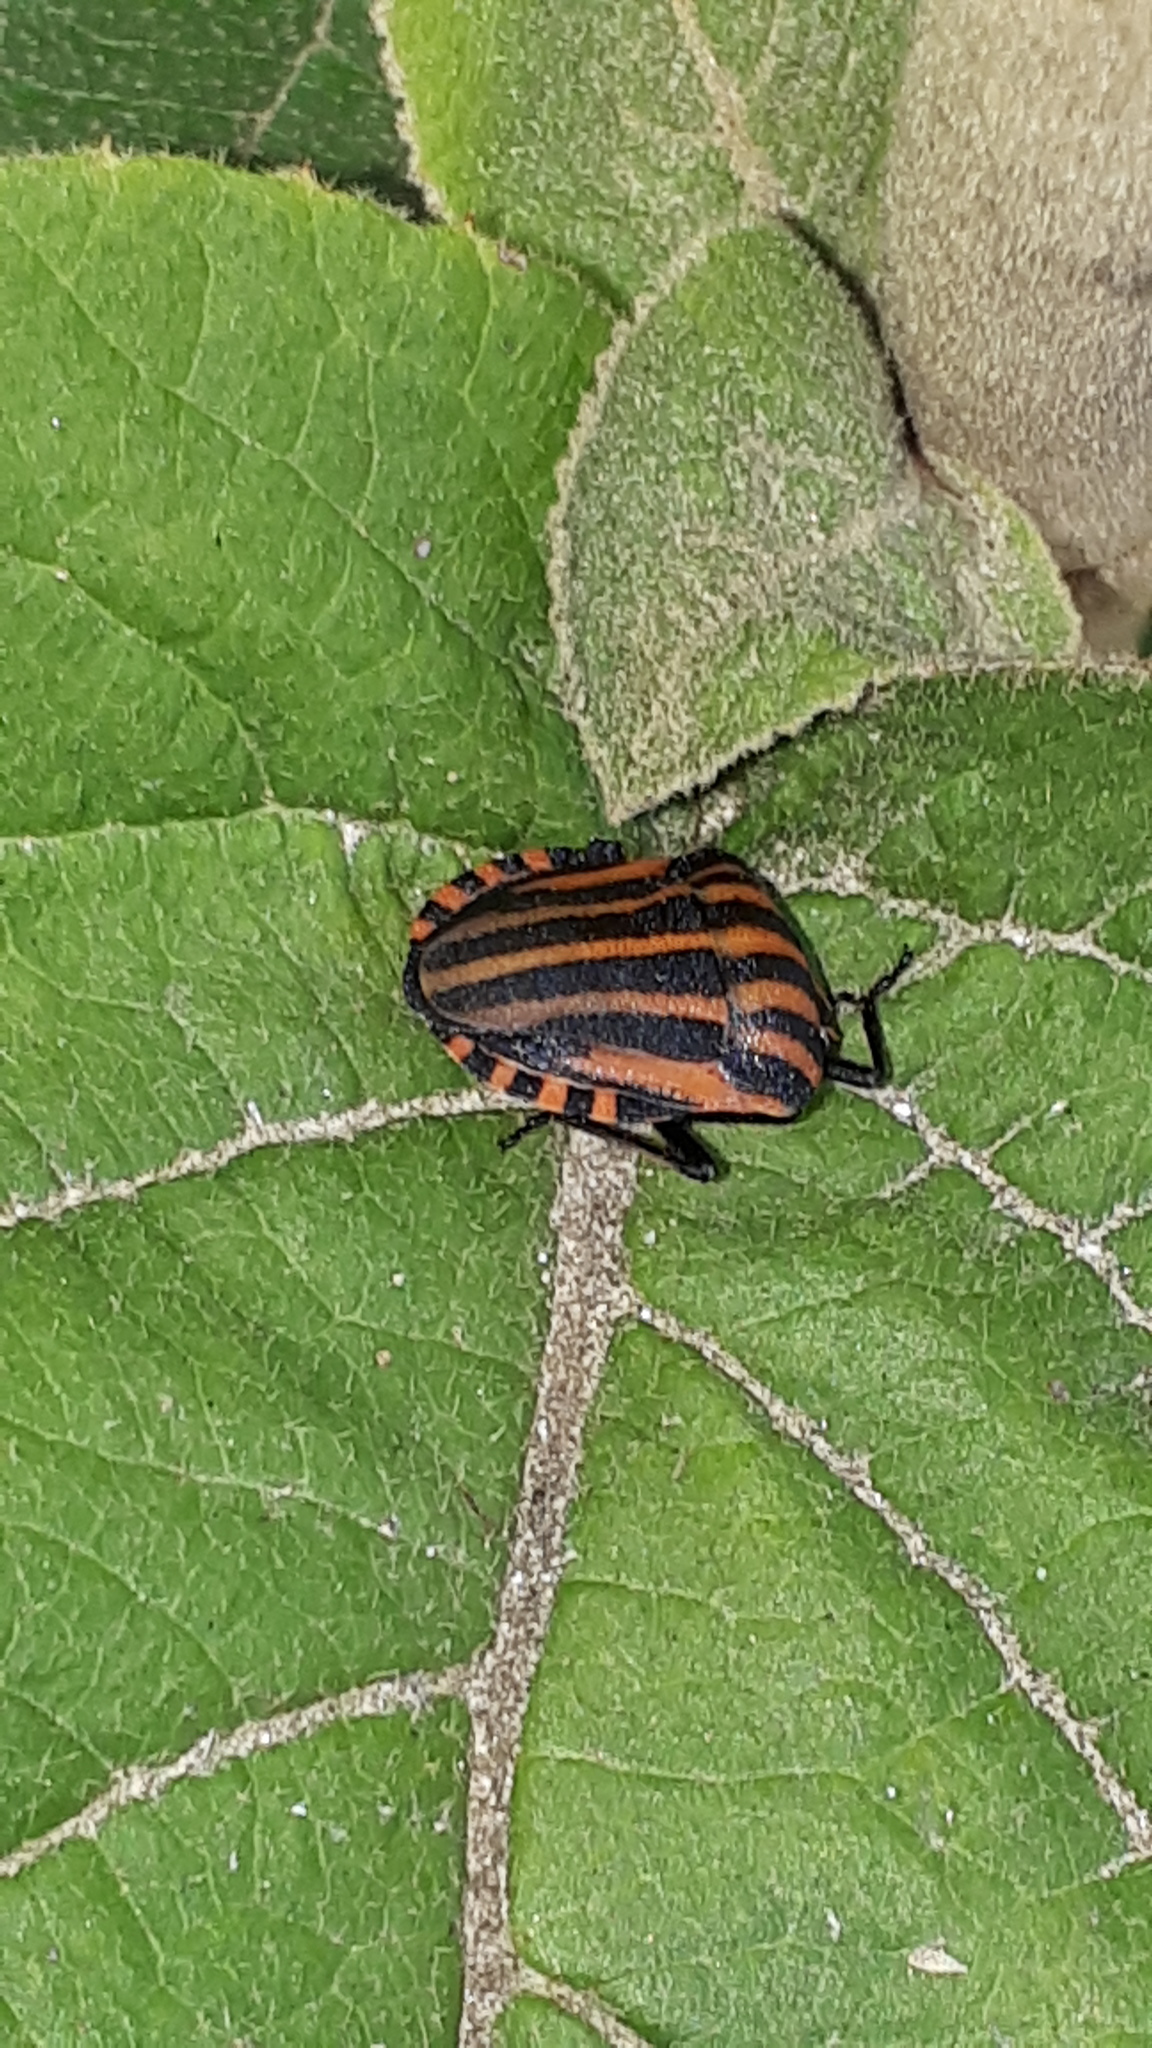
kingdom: Animalia
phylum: Arthropoda
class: Insecta
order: Hemiptera
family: Pentatomidae
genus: Graphosoma
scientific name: Graphosoma italicum
